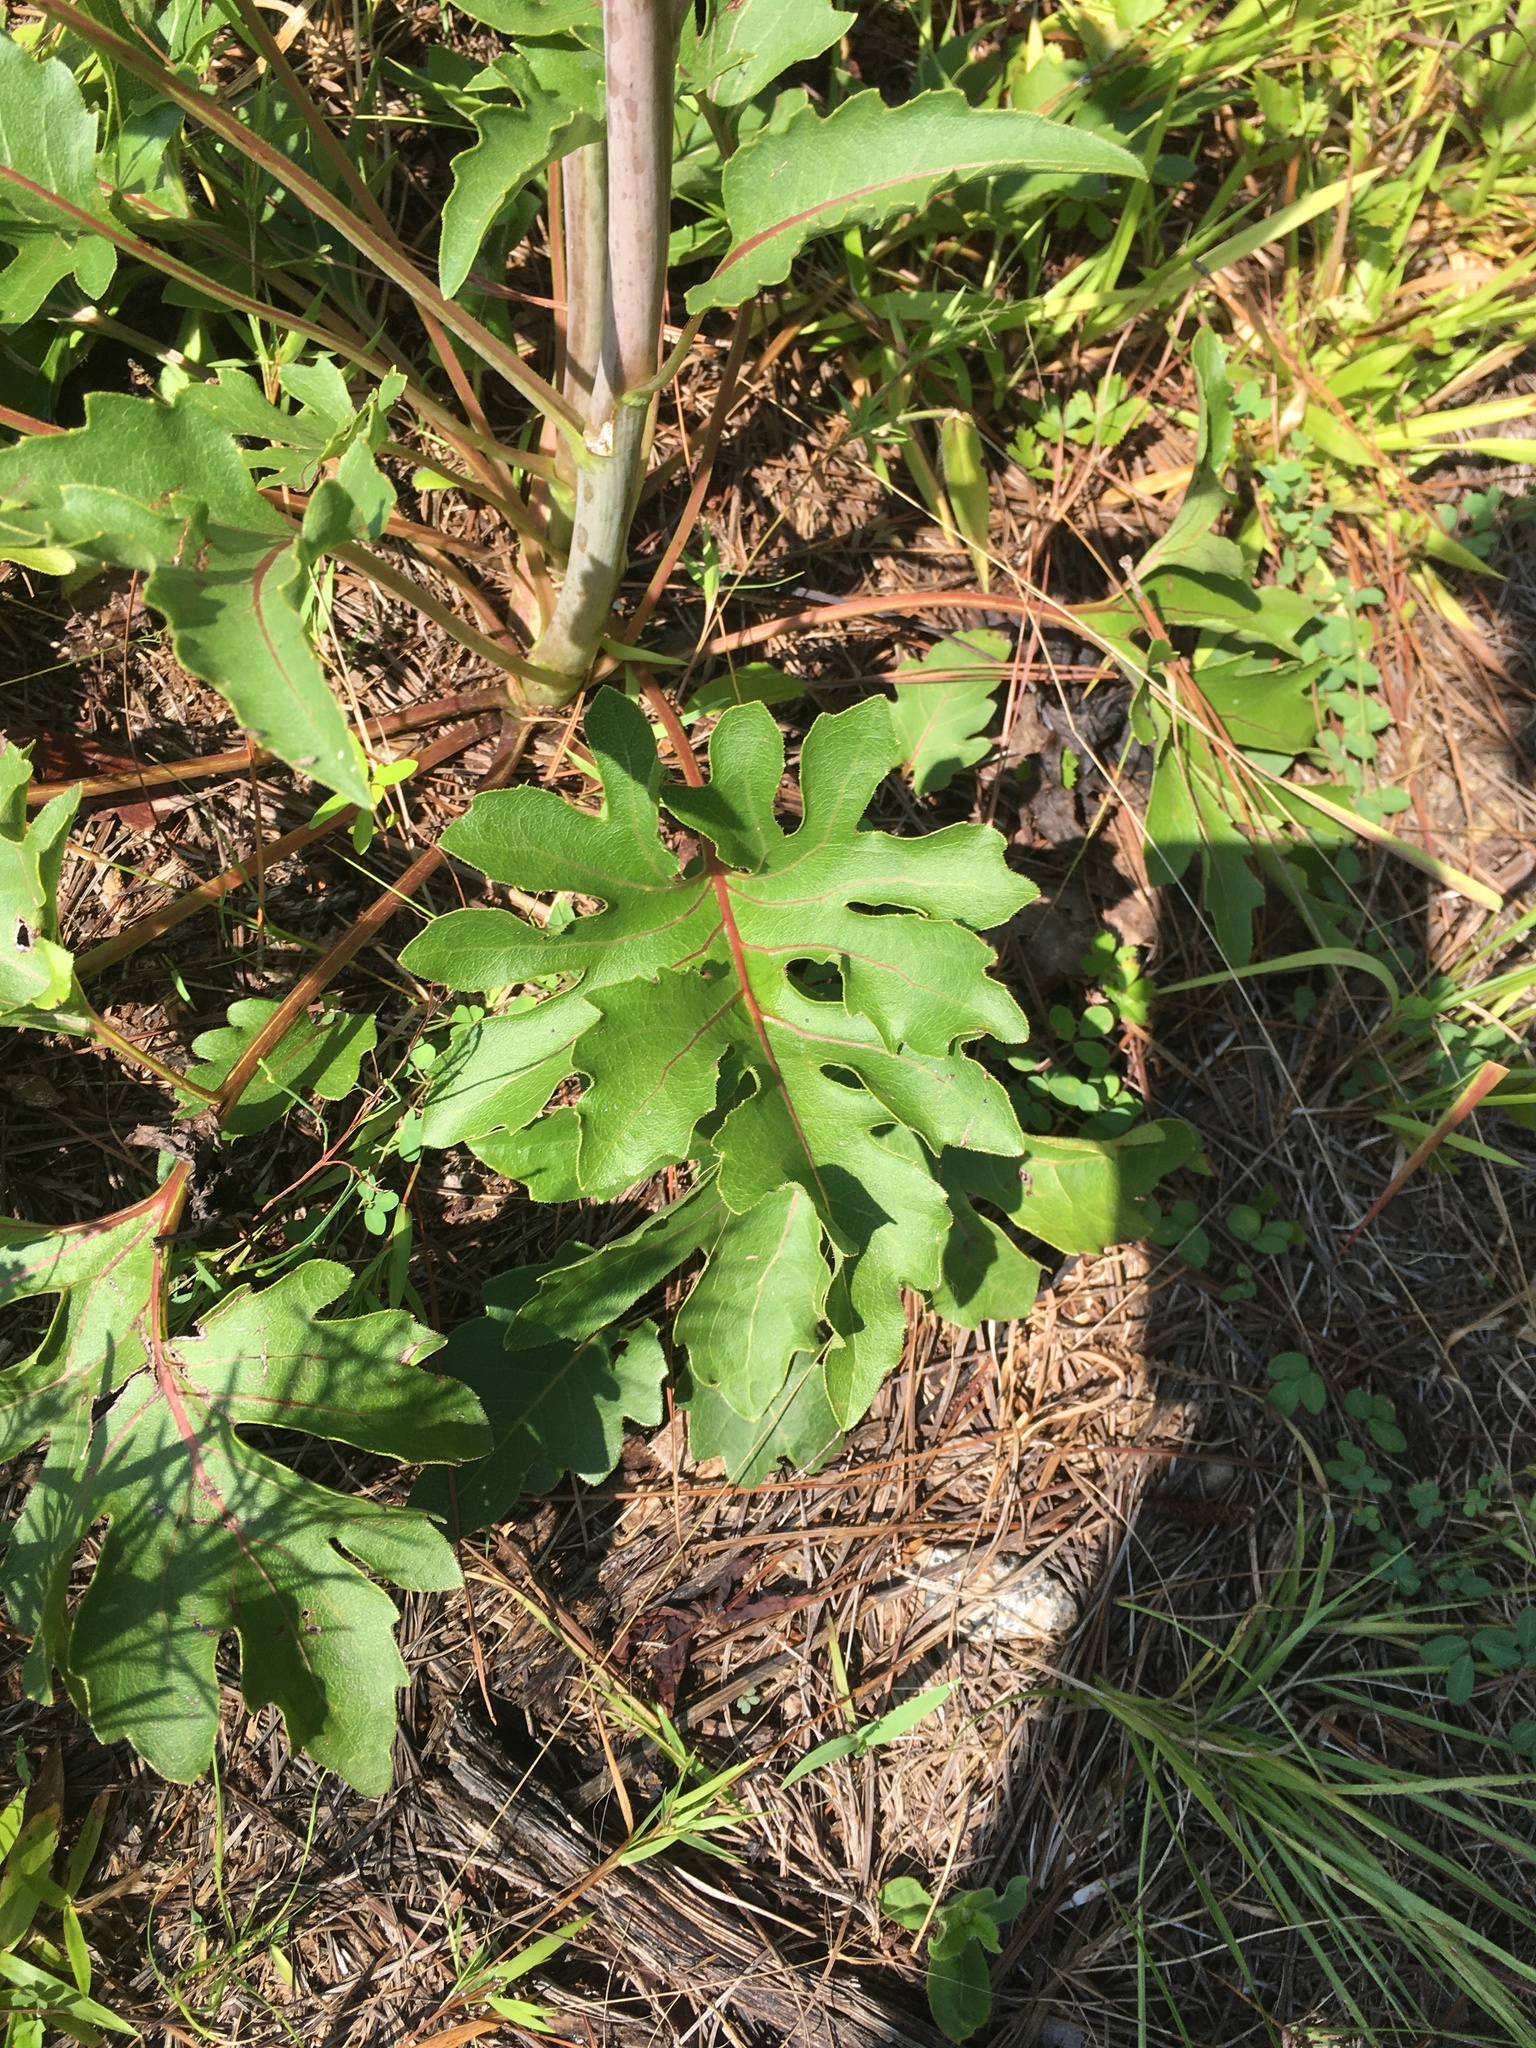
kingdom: Plantae
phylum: Tracheophyta
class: Magnoliopsida
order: Asterales
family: Asteraceae
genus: Silphium
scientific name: Silphium compositum
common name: Lesser basal-leaf rosinweed
